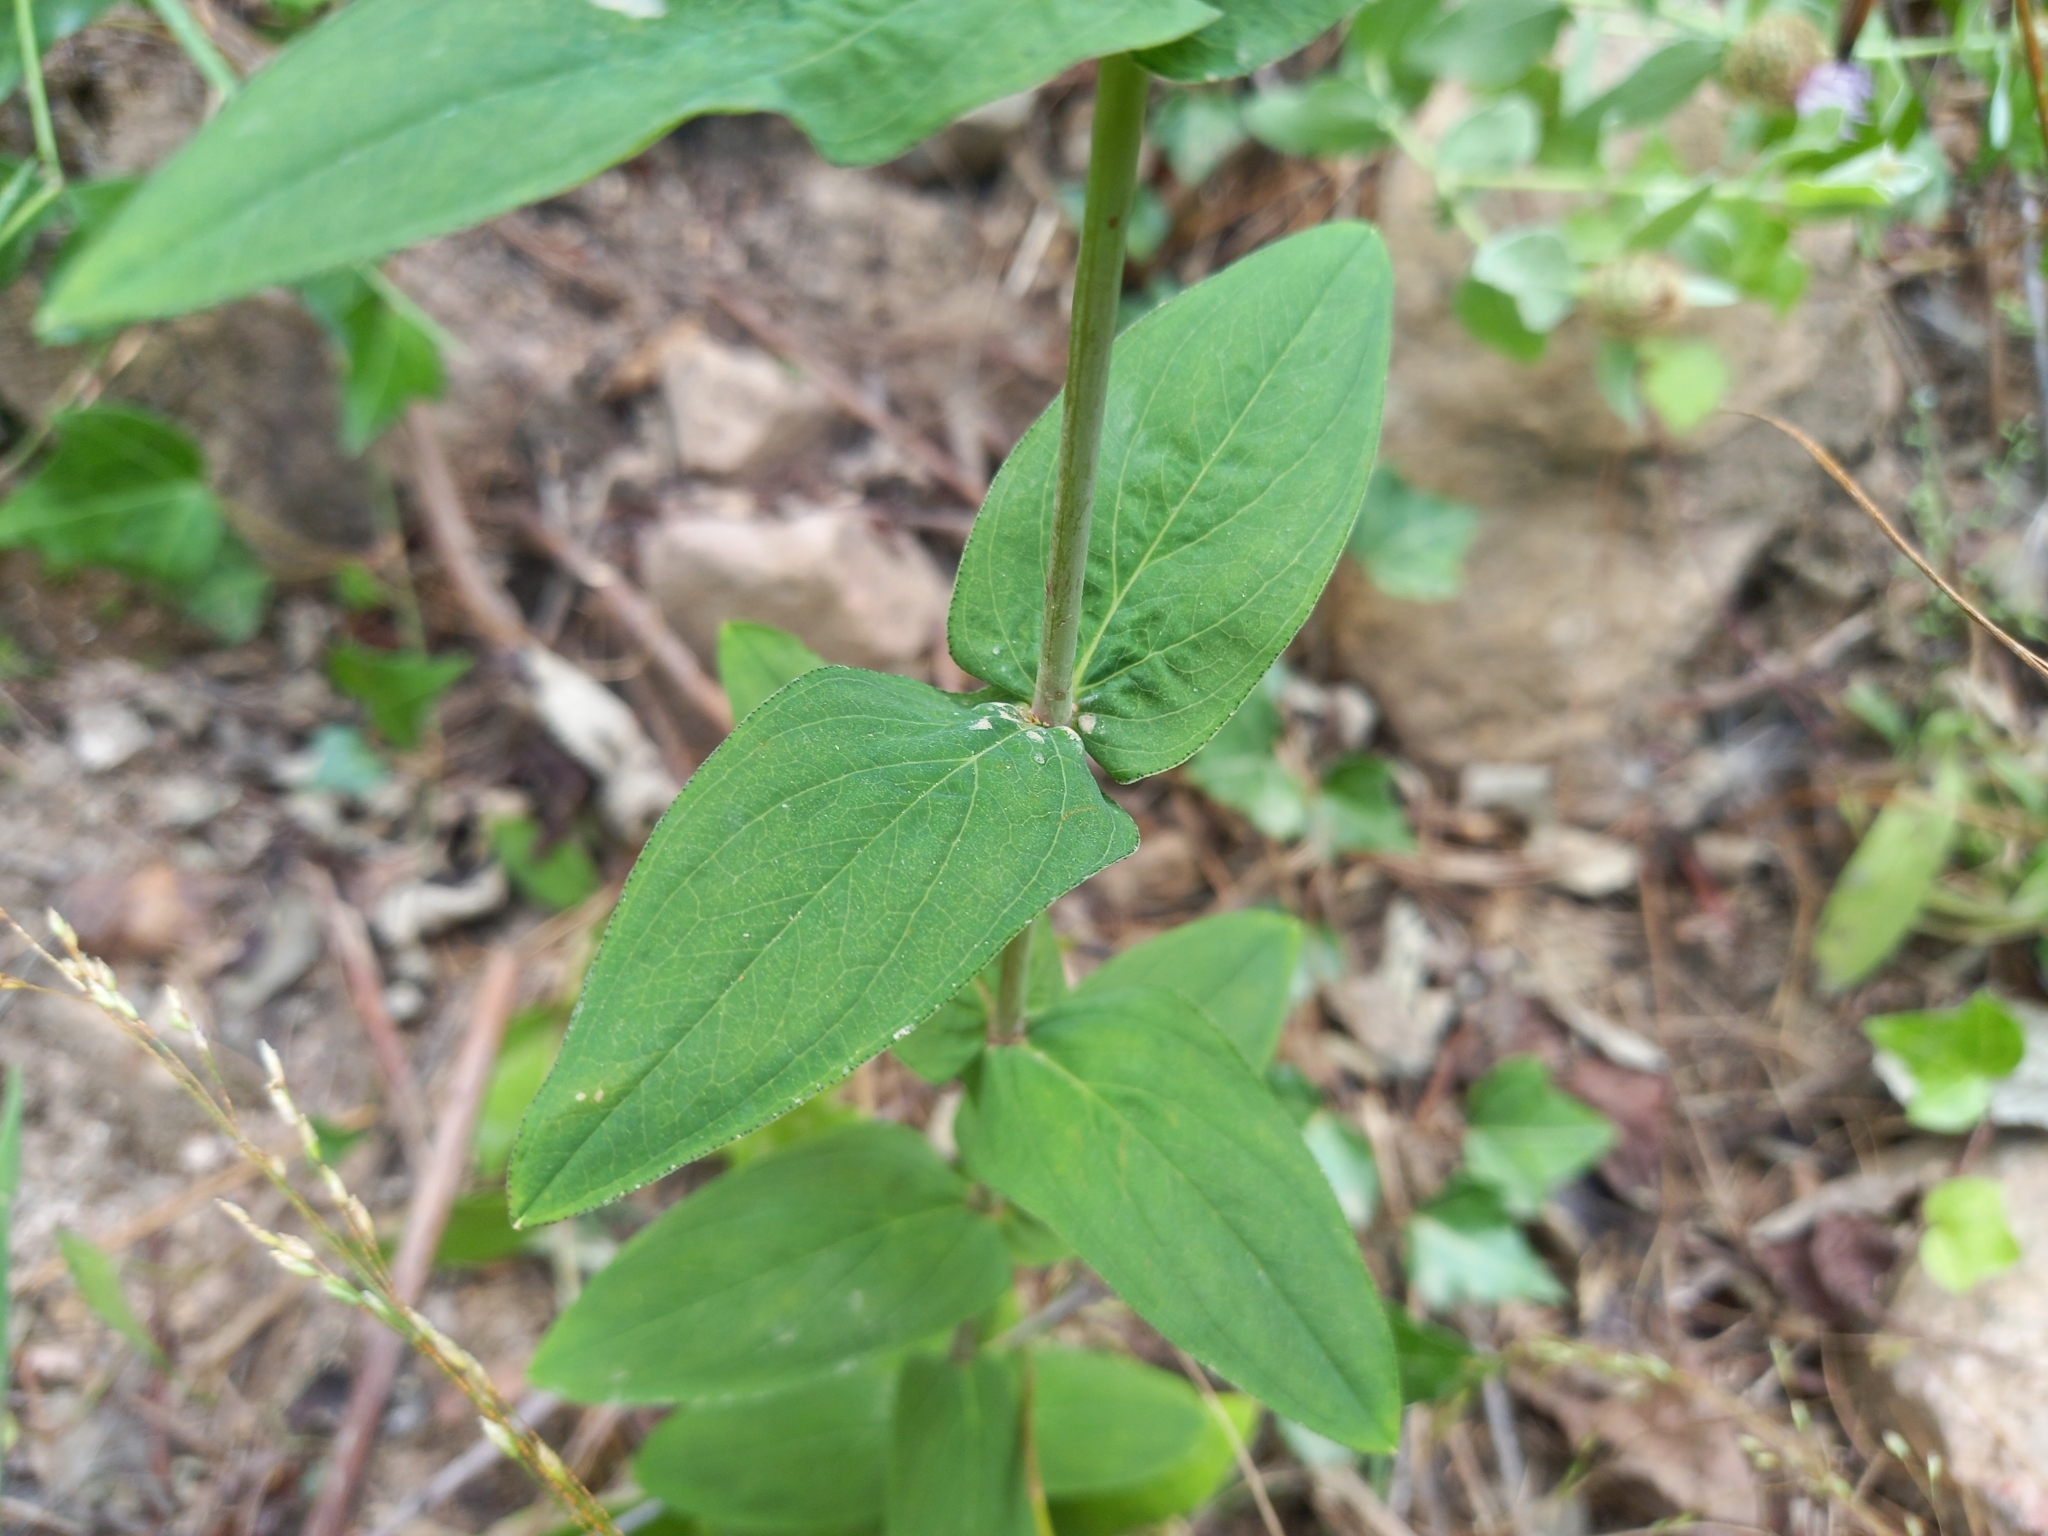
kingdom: Plantae
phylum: Tracheophyta
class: Magnoliopsida
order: Malpighiales
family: Hypericaceae
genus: Hypericum
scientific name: Hypericum montanum
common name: Pale st. john's-wort
